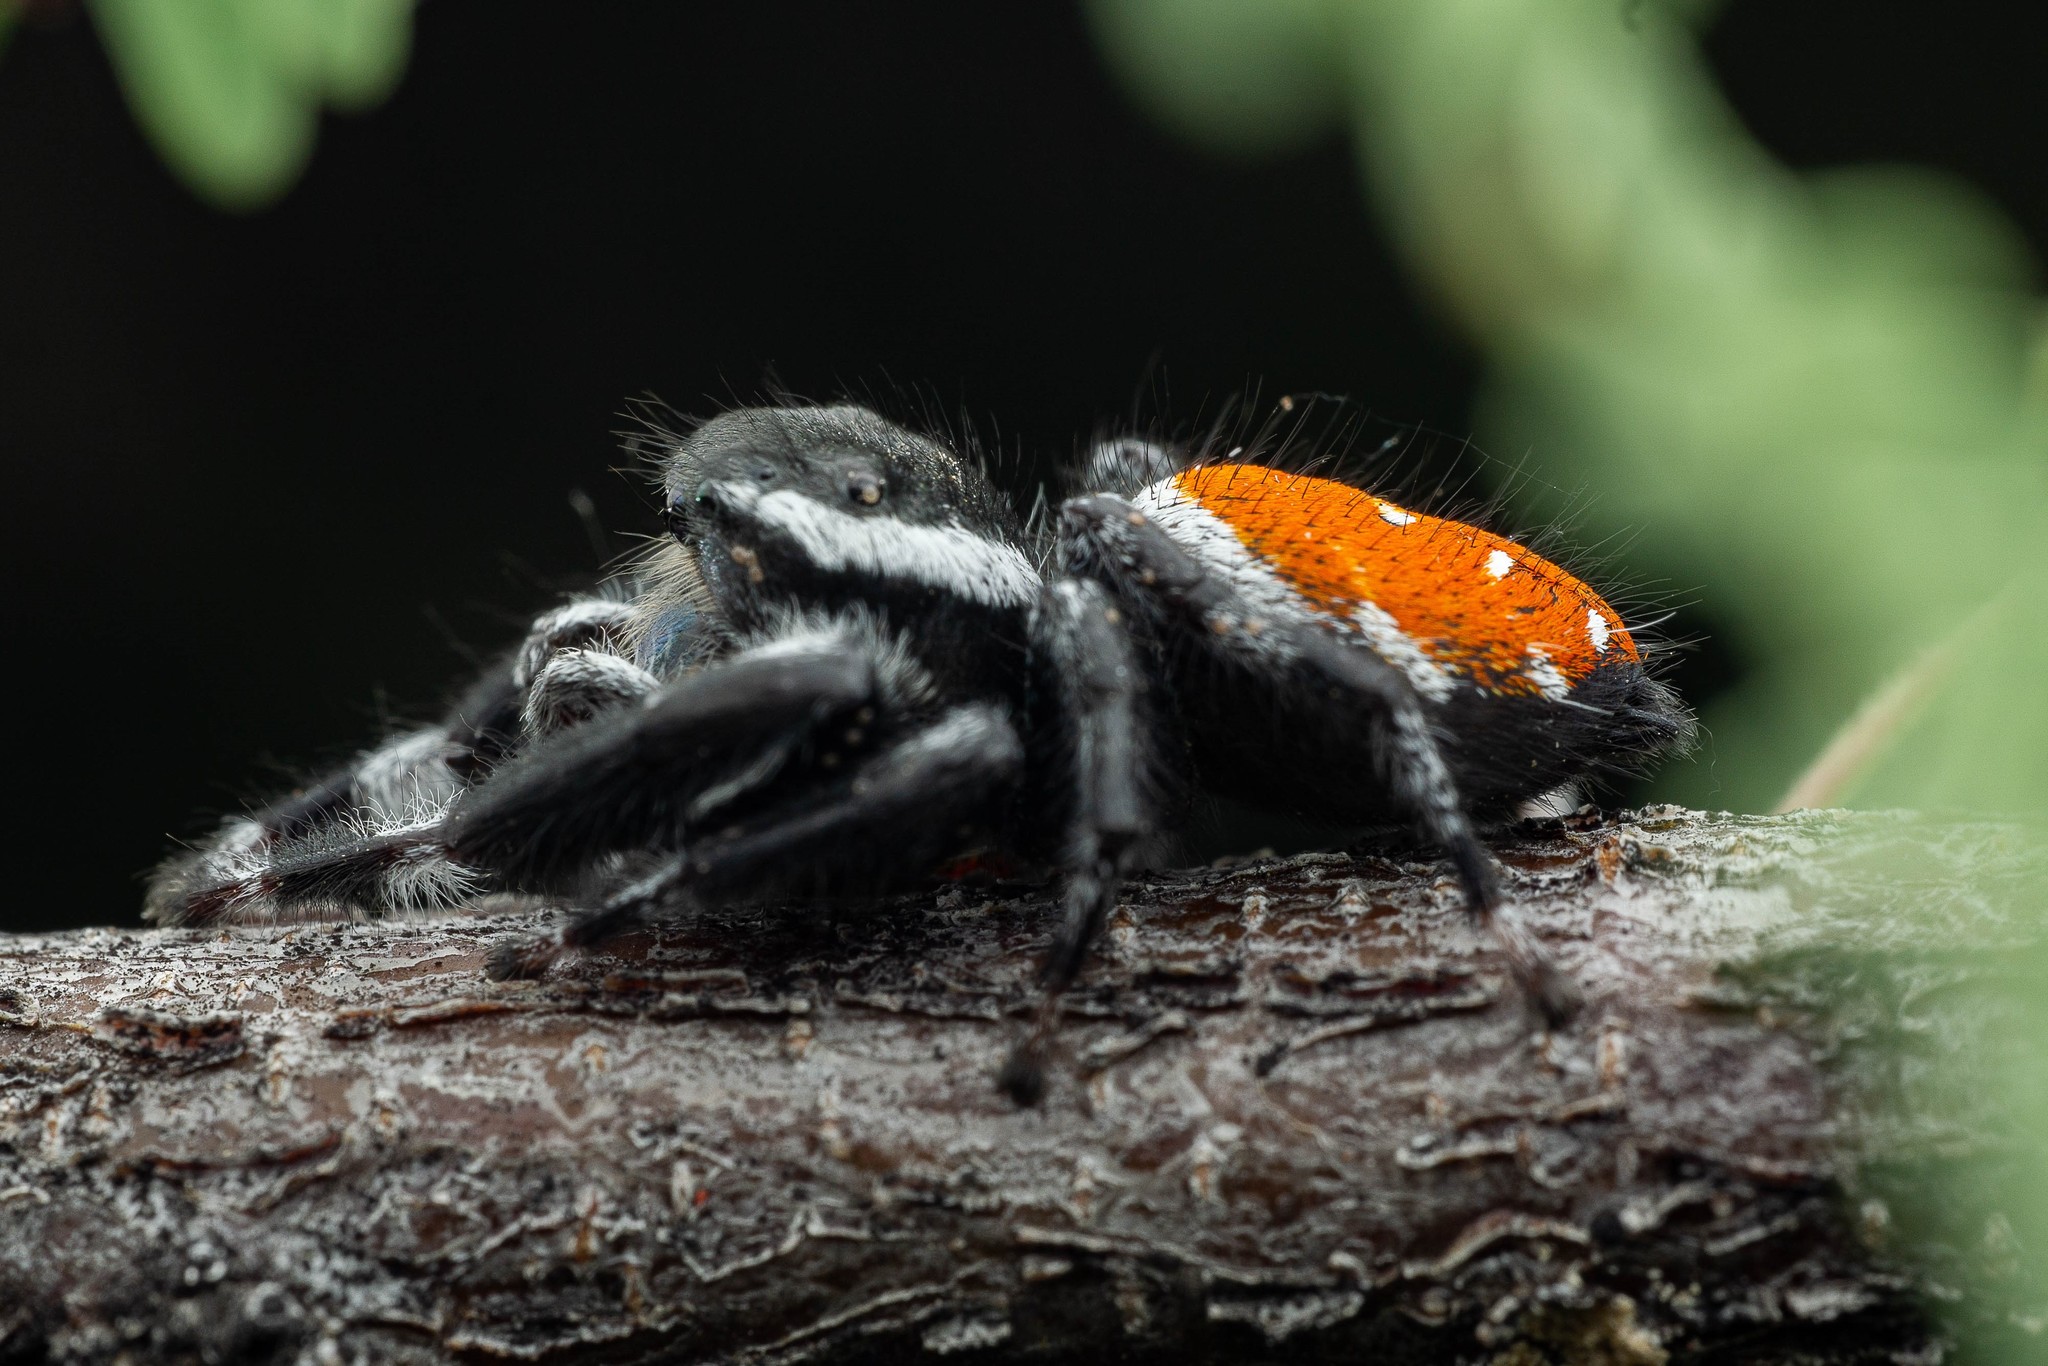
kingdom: Animalia
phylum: Arthropoda
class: Arachnida
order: Araneae
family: Salticidae
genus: Phidippus
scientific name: Phidippus carneus
